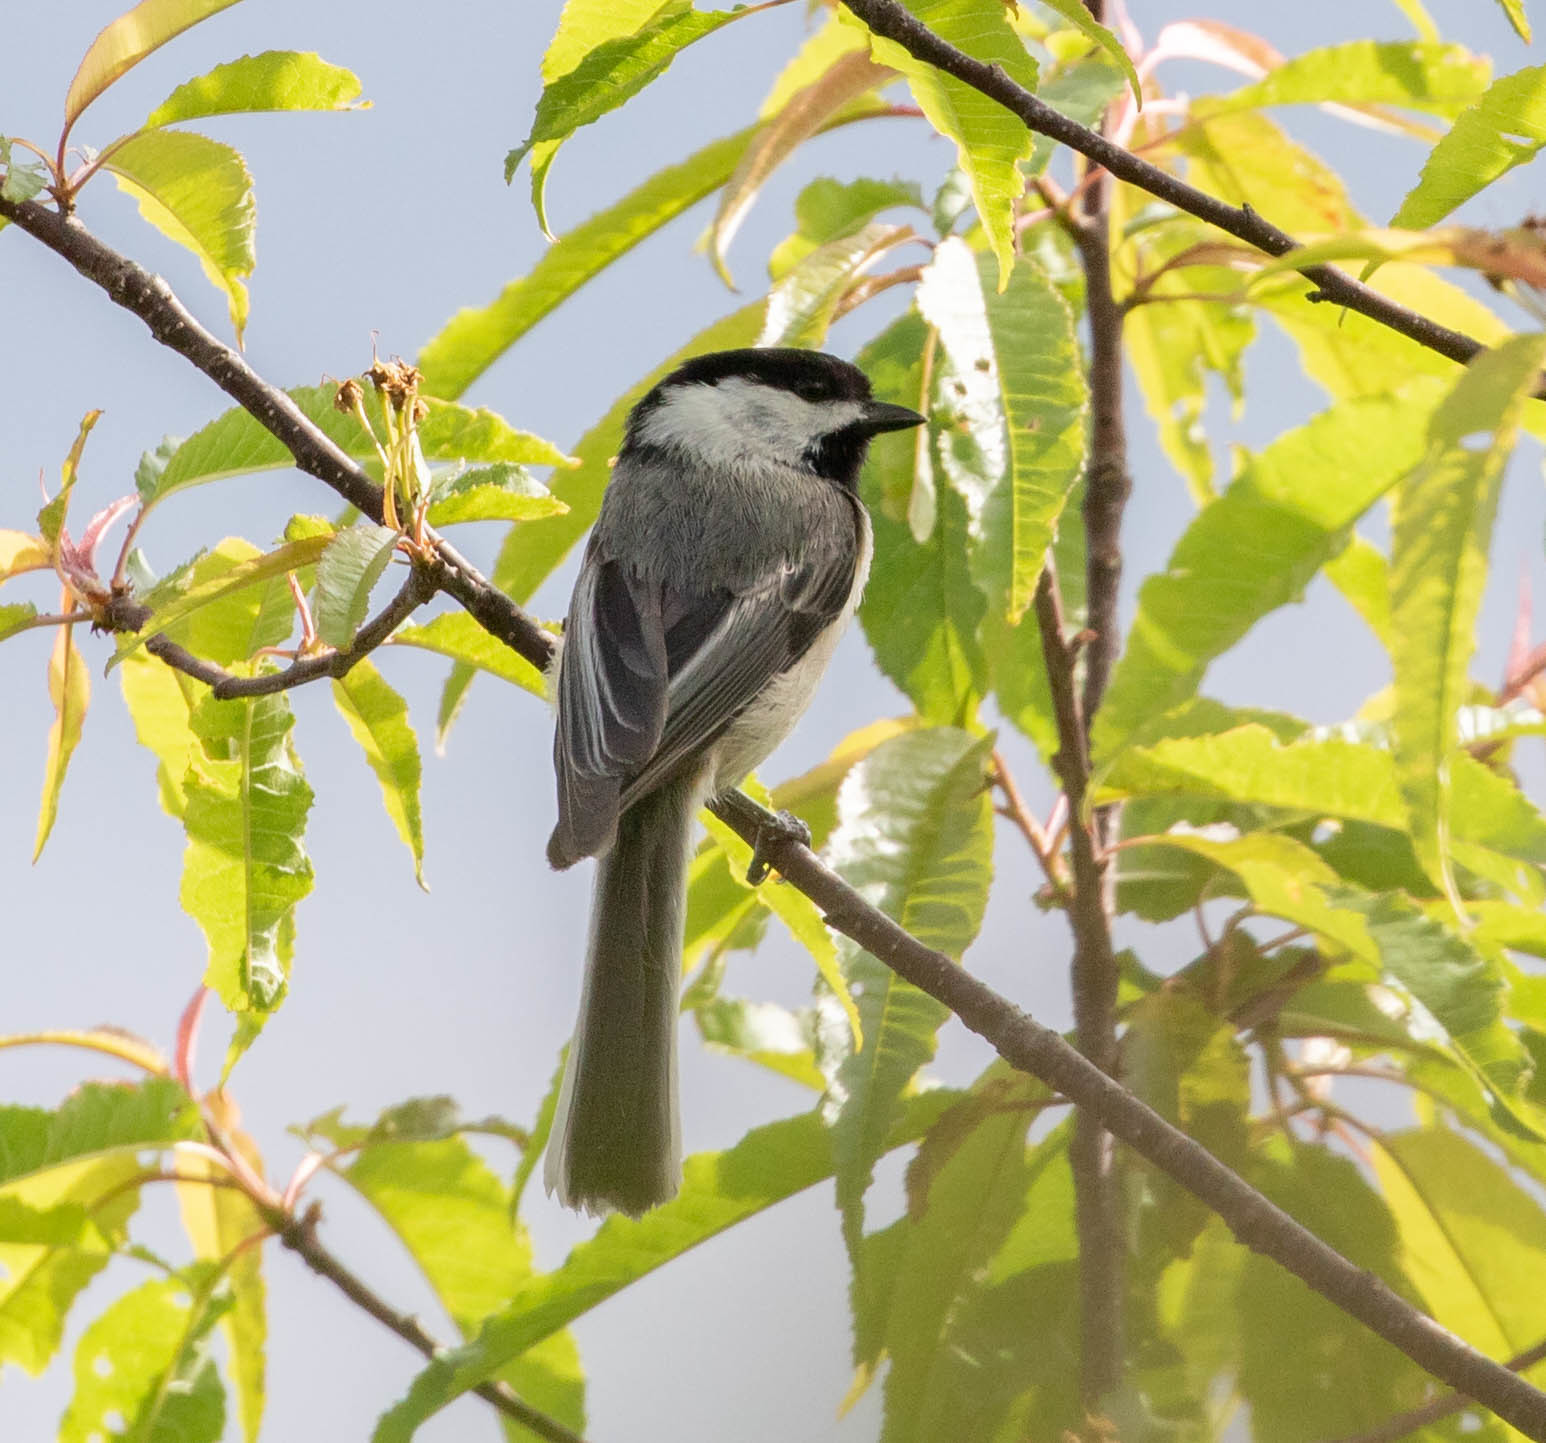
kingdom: Animalia
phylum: Chordata
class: Aves
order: Passeriformes
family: Paridae
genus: Poecile
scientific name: Poecile atricapillus
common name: Black-capped chickadee
